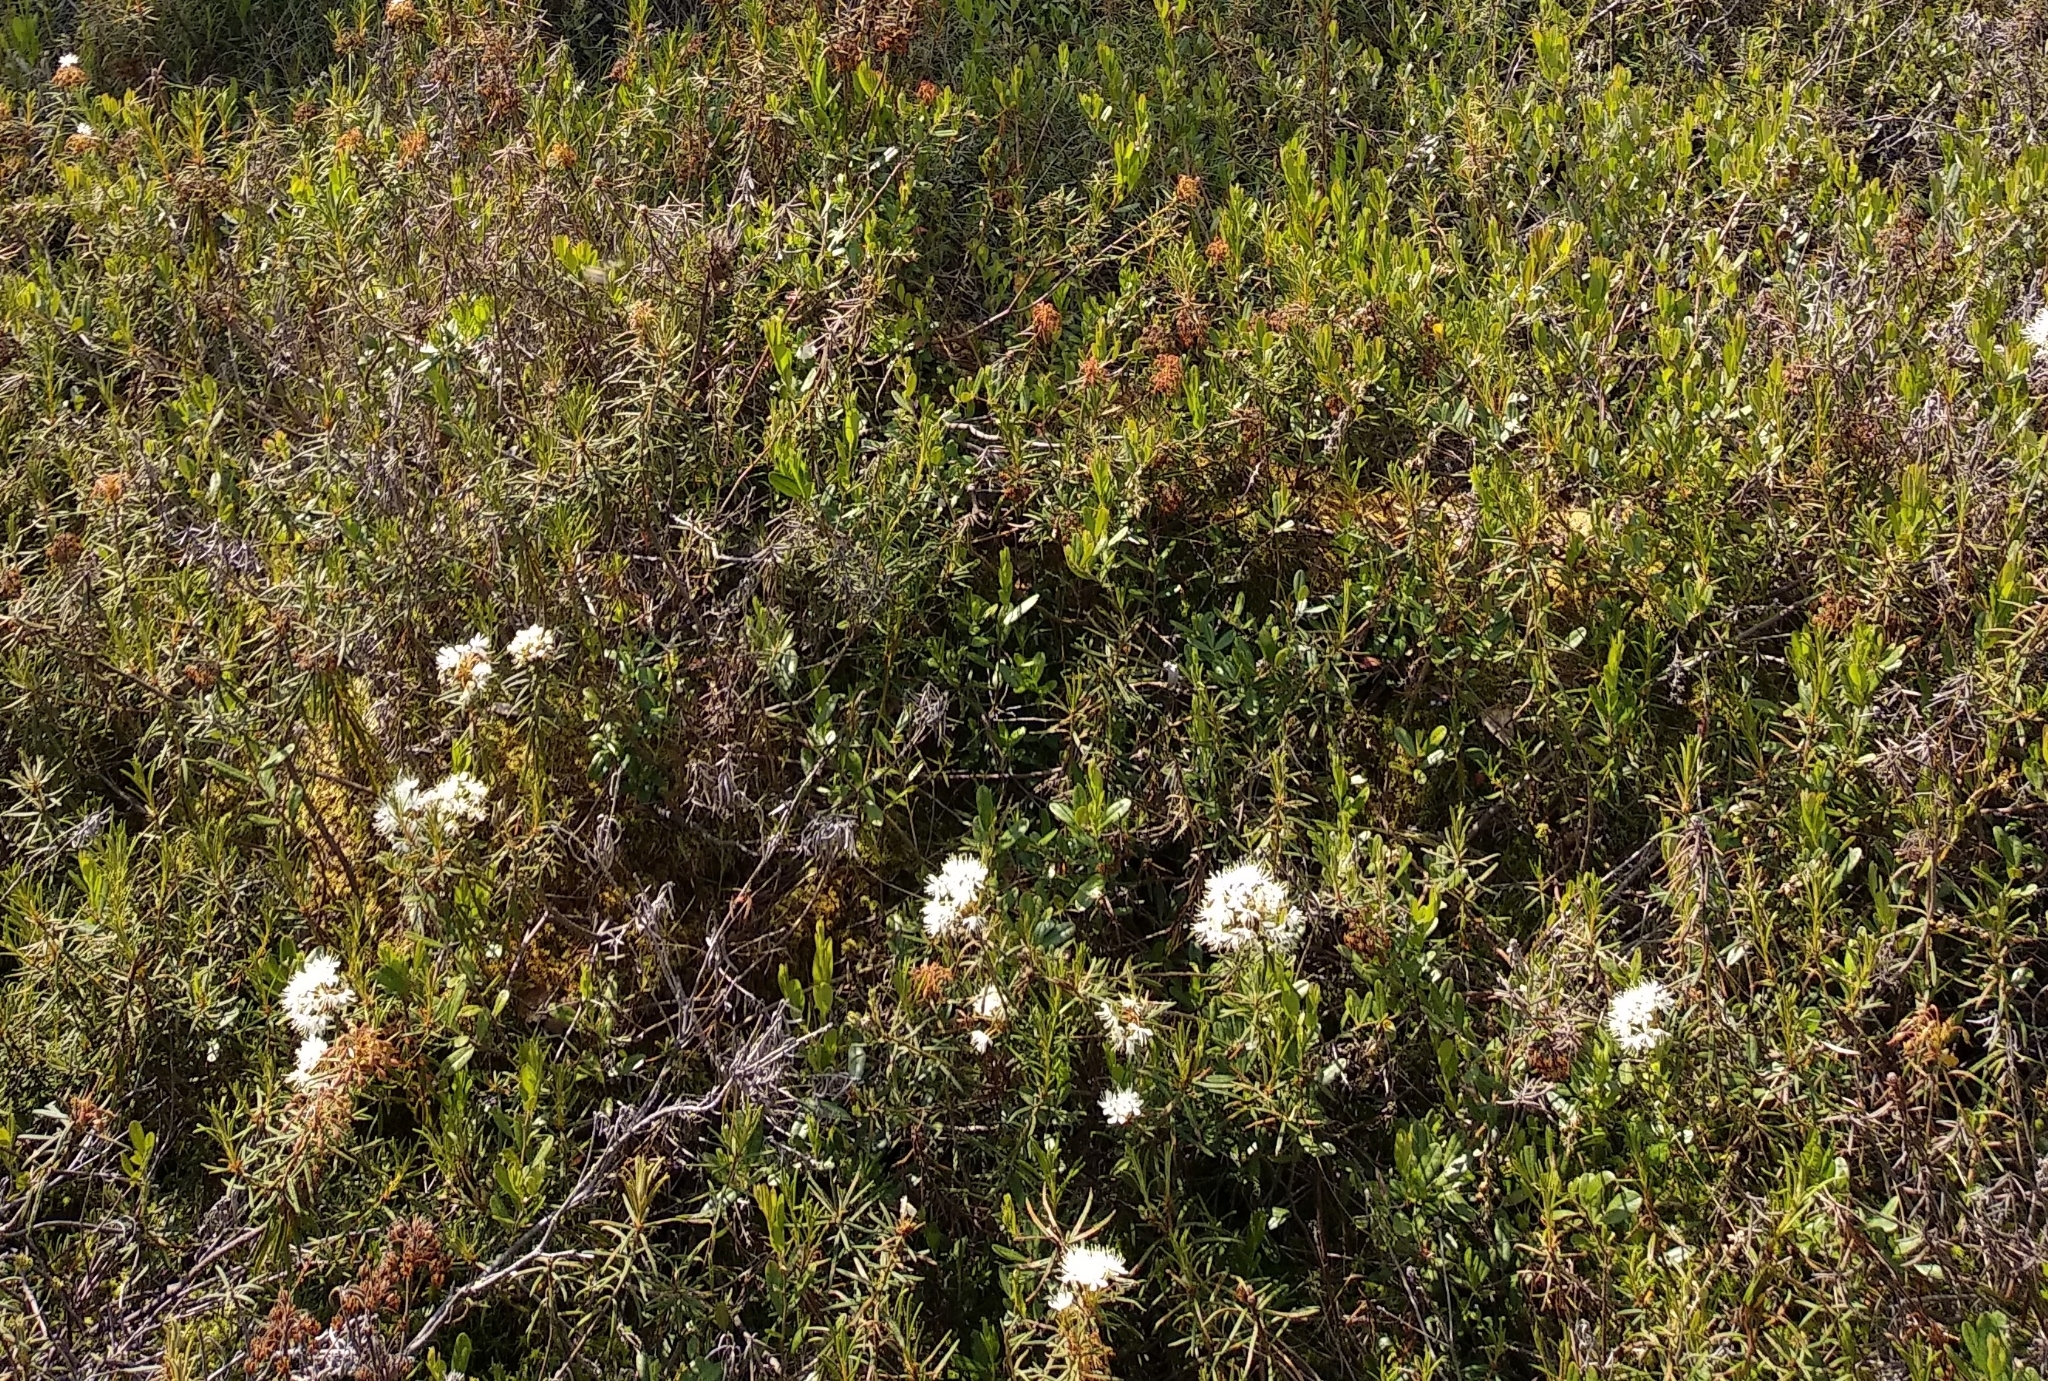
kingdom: Plantae
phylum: Tracheophyta
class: Magnoliopsida
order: Ericales
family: Ericaceae
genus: Rhododendron
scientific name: Rhododendron tomentosum
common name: Marsh labrador tea
